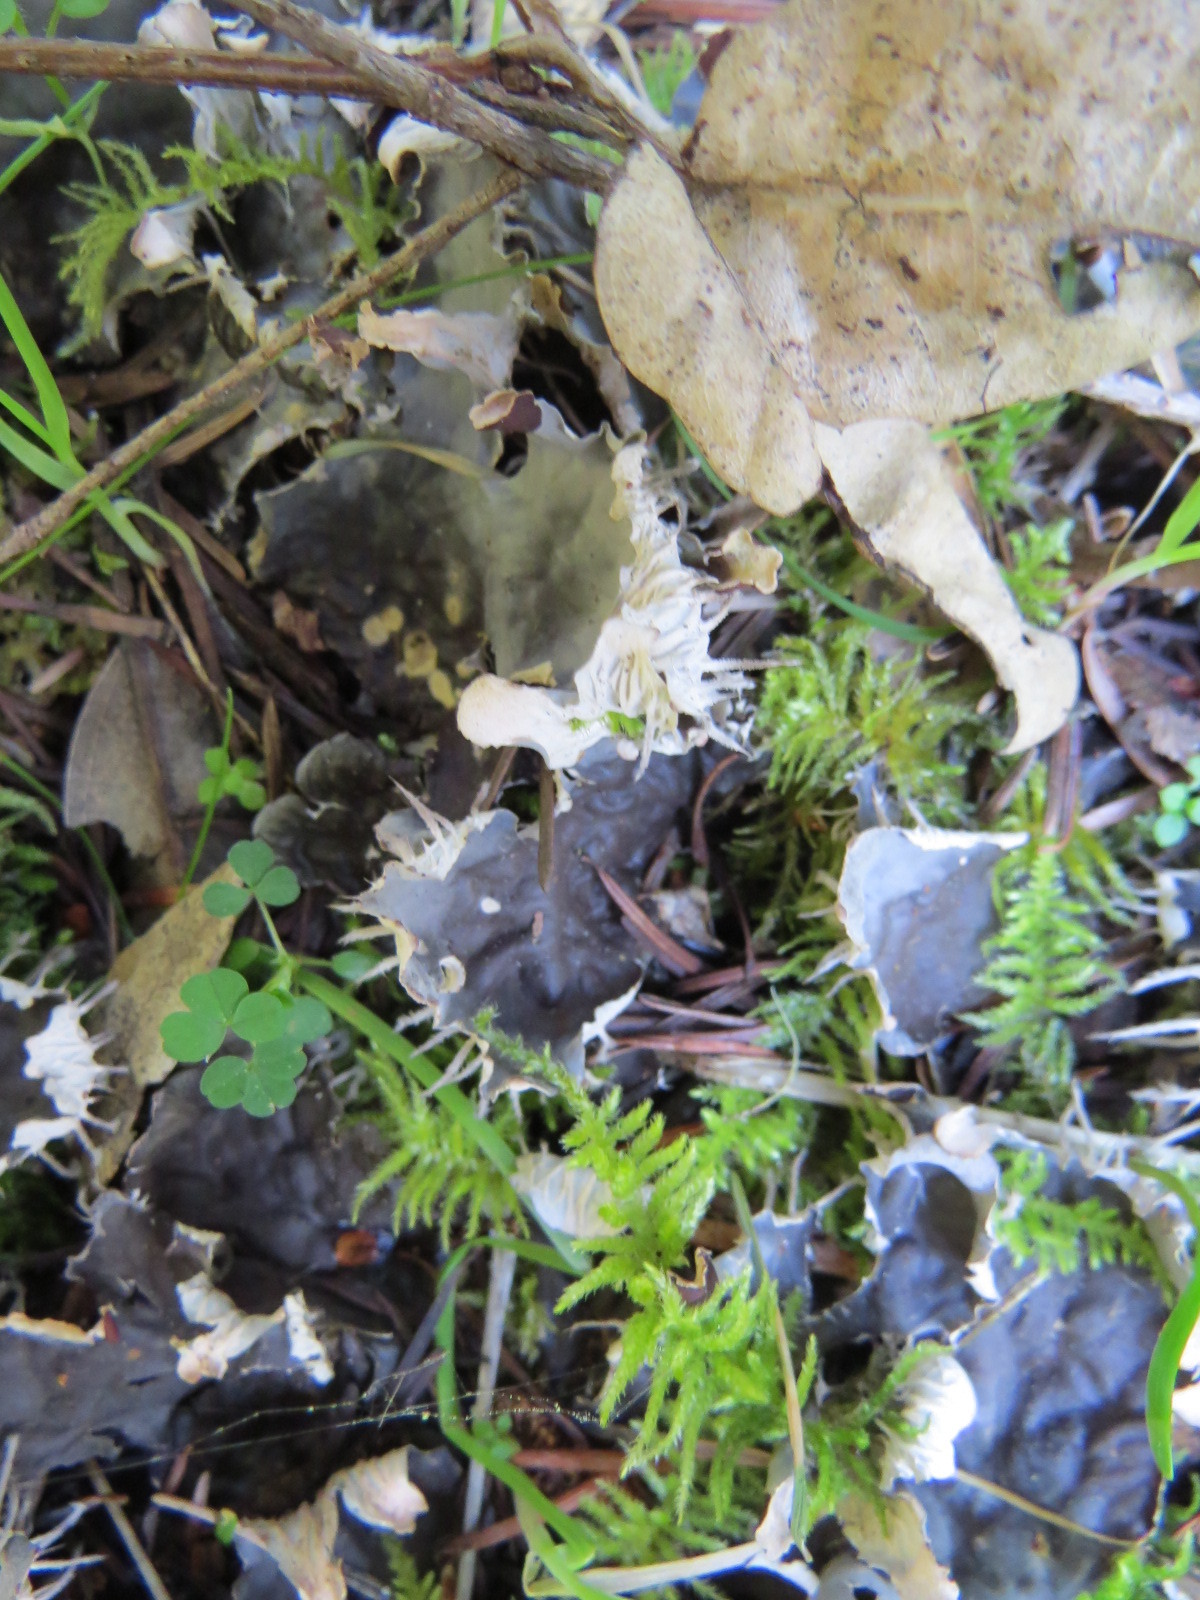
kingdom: Fungi
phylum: Ascomycota
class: Lecanoromycetes
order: Peltigerales
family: Peltigeraceae
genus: Peltigera
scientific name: Peltigera membranacea
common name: Membranous pelt lichen
